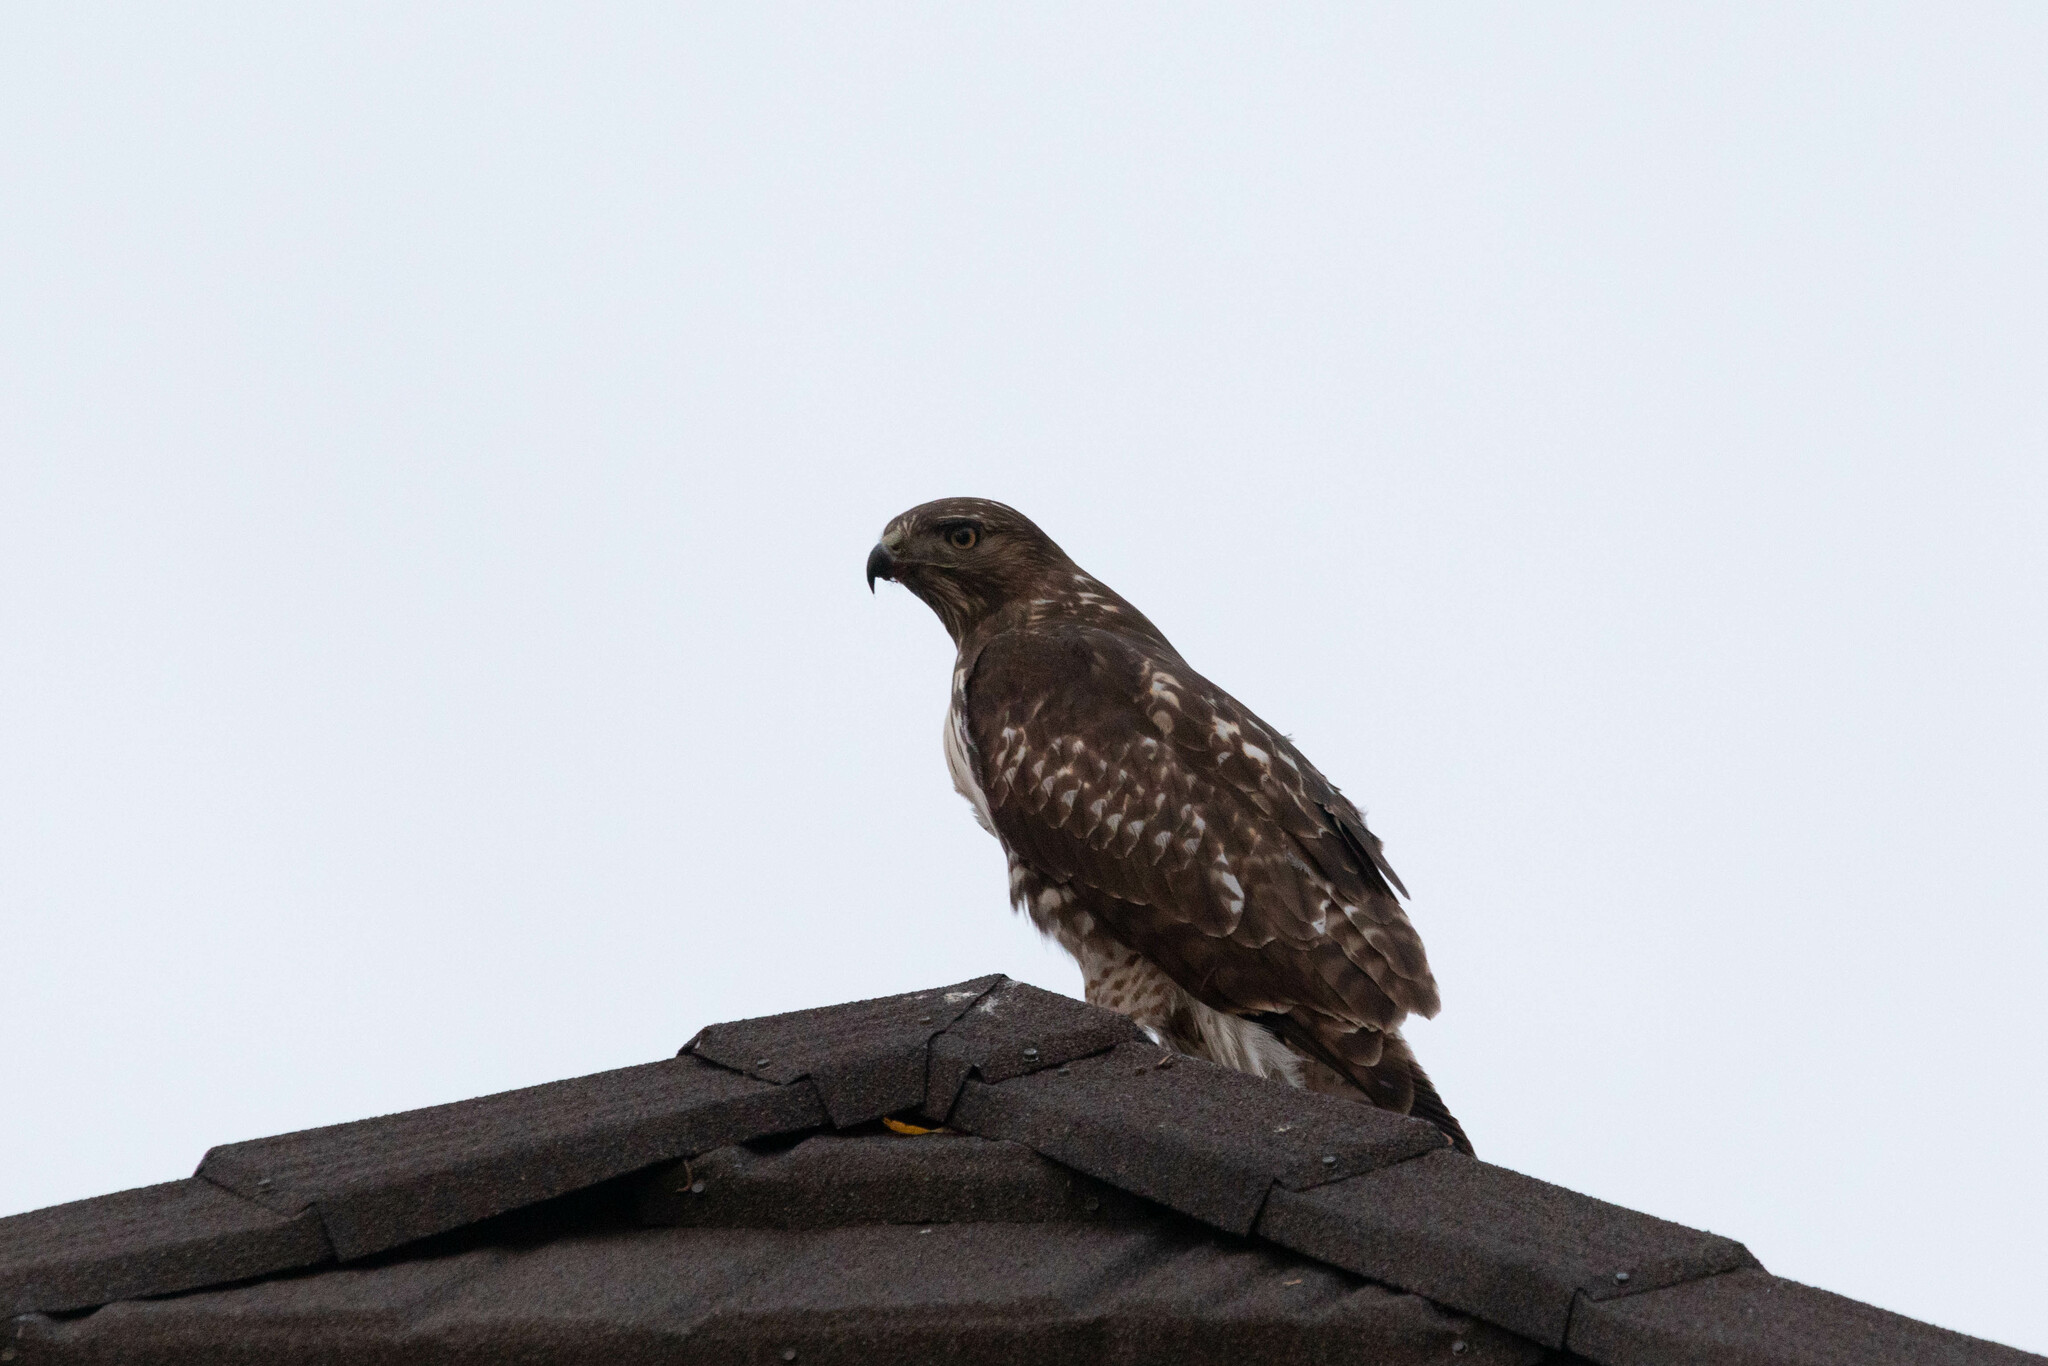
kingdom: Animalia
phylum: Chordata
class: Aves
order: Accipitriformes
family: Accipitridae
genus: Buteo
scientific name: Buteo jamaicensis
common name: Red-tailed hawk
